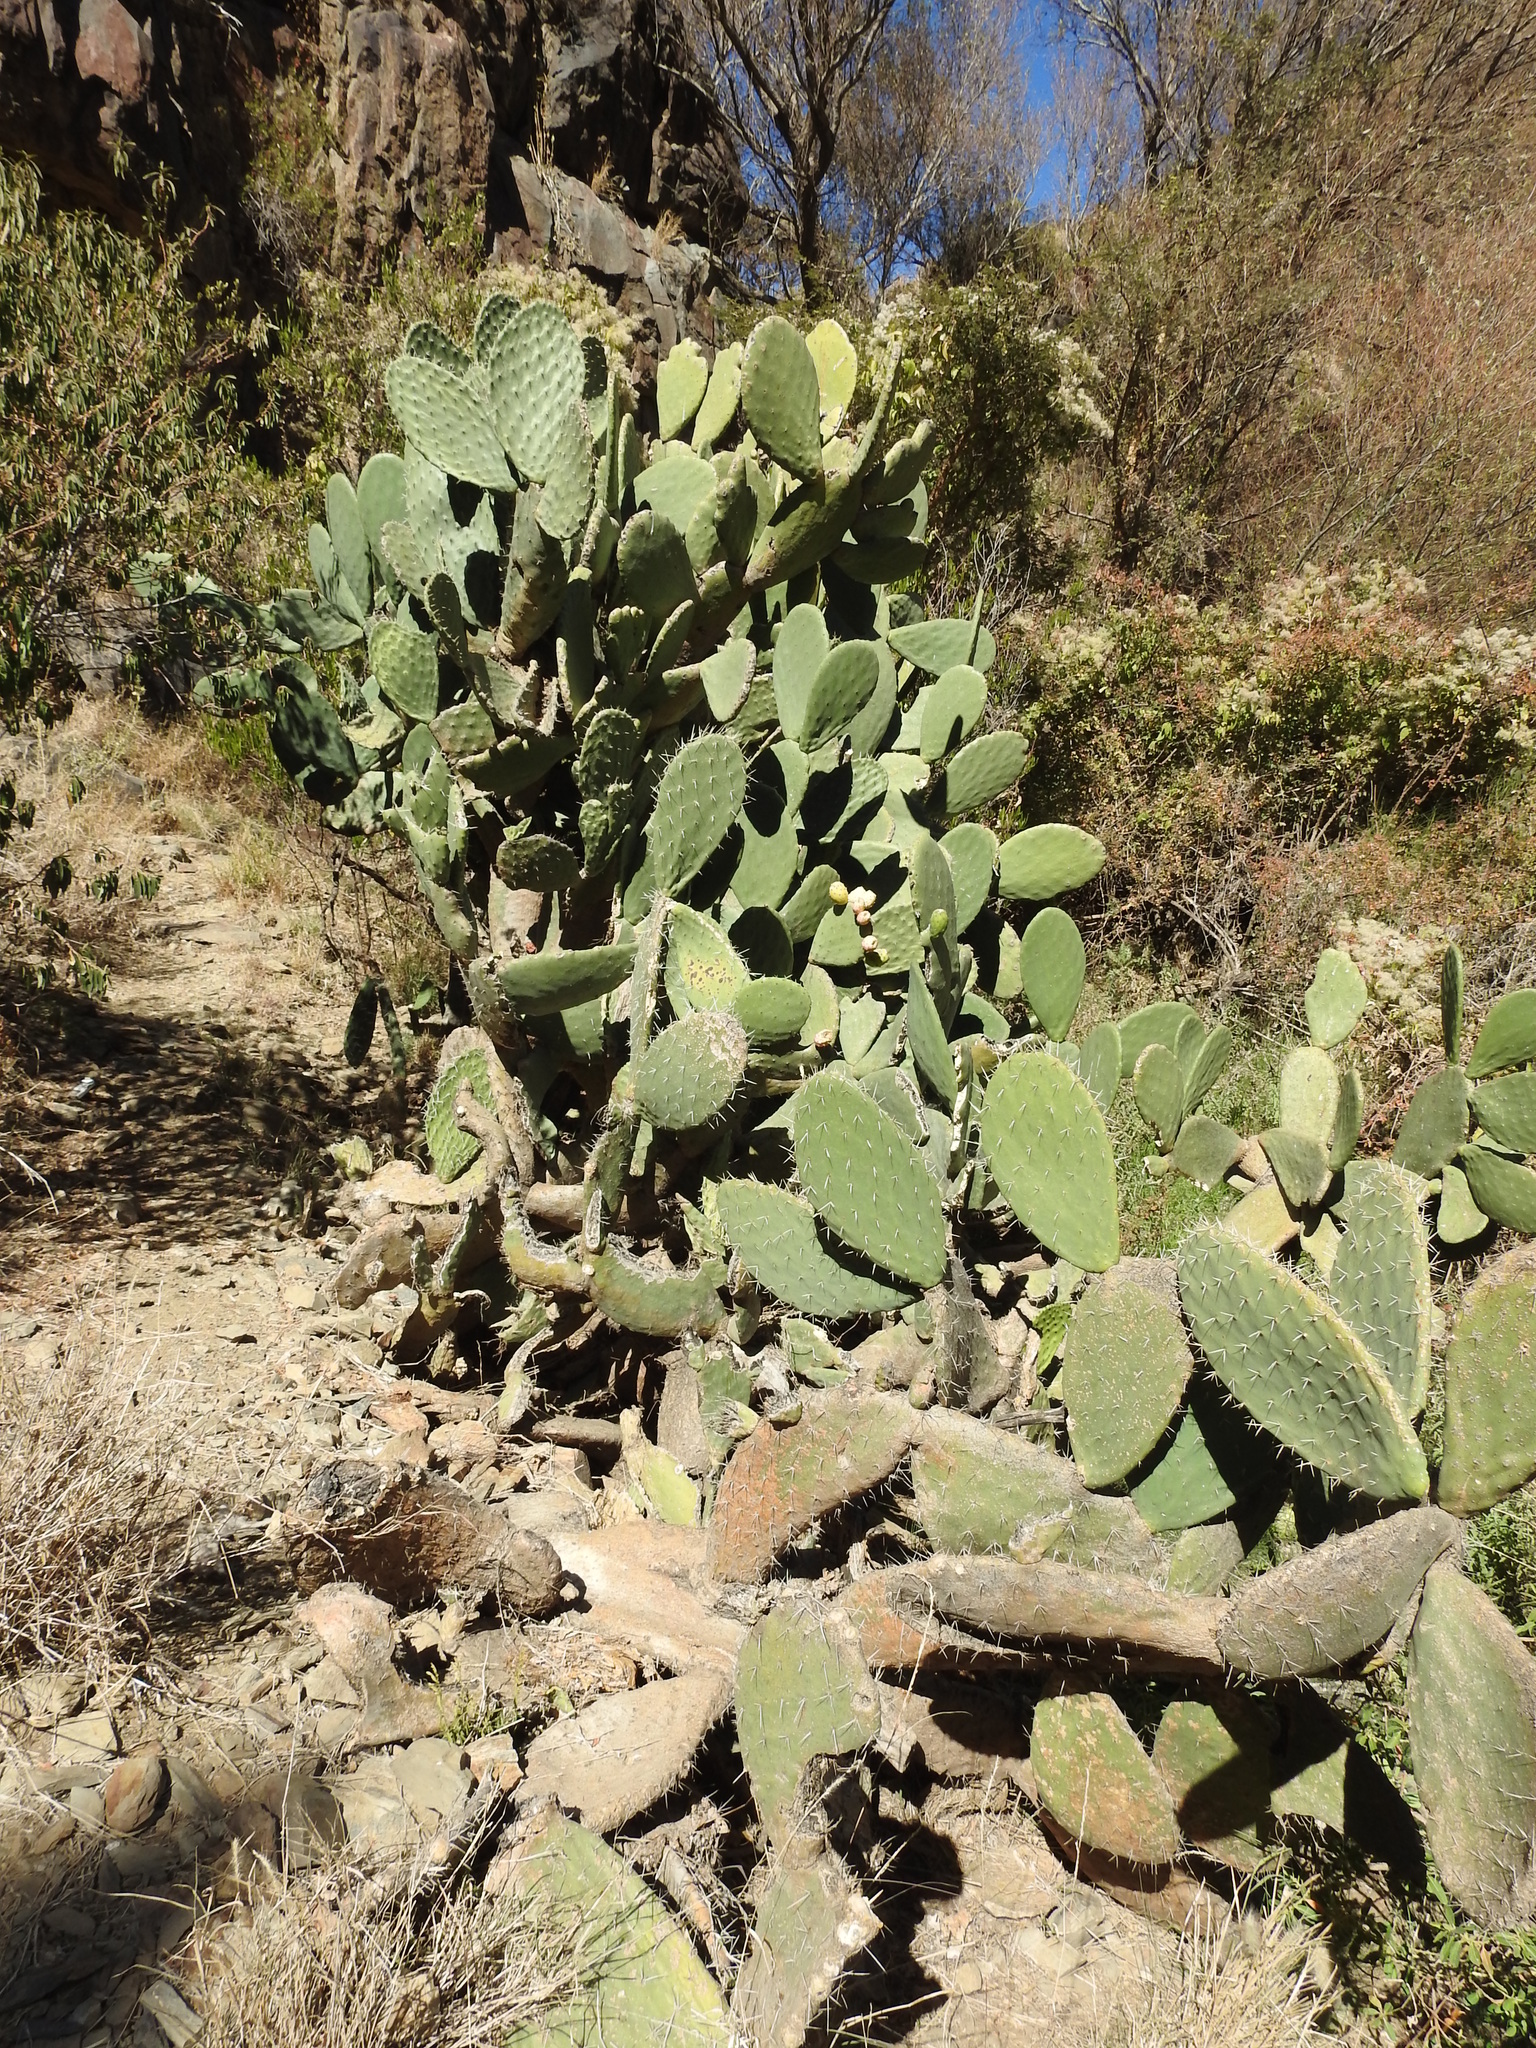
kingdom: Plantae
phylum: Tracheophyta
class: Magnoliopsida
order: Caryophyllales
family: Cactaceae
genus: Opuntia
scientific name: Opuntia ficus-indica
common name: Barbary fig
